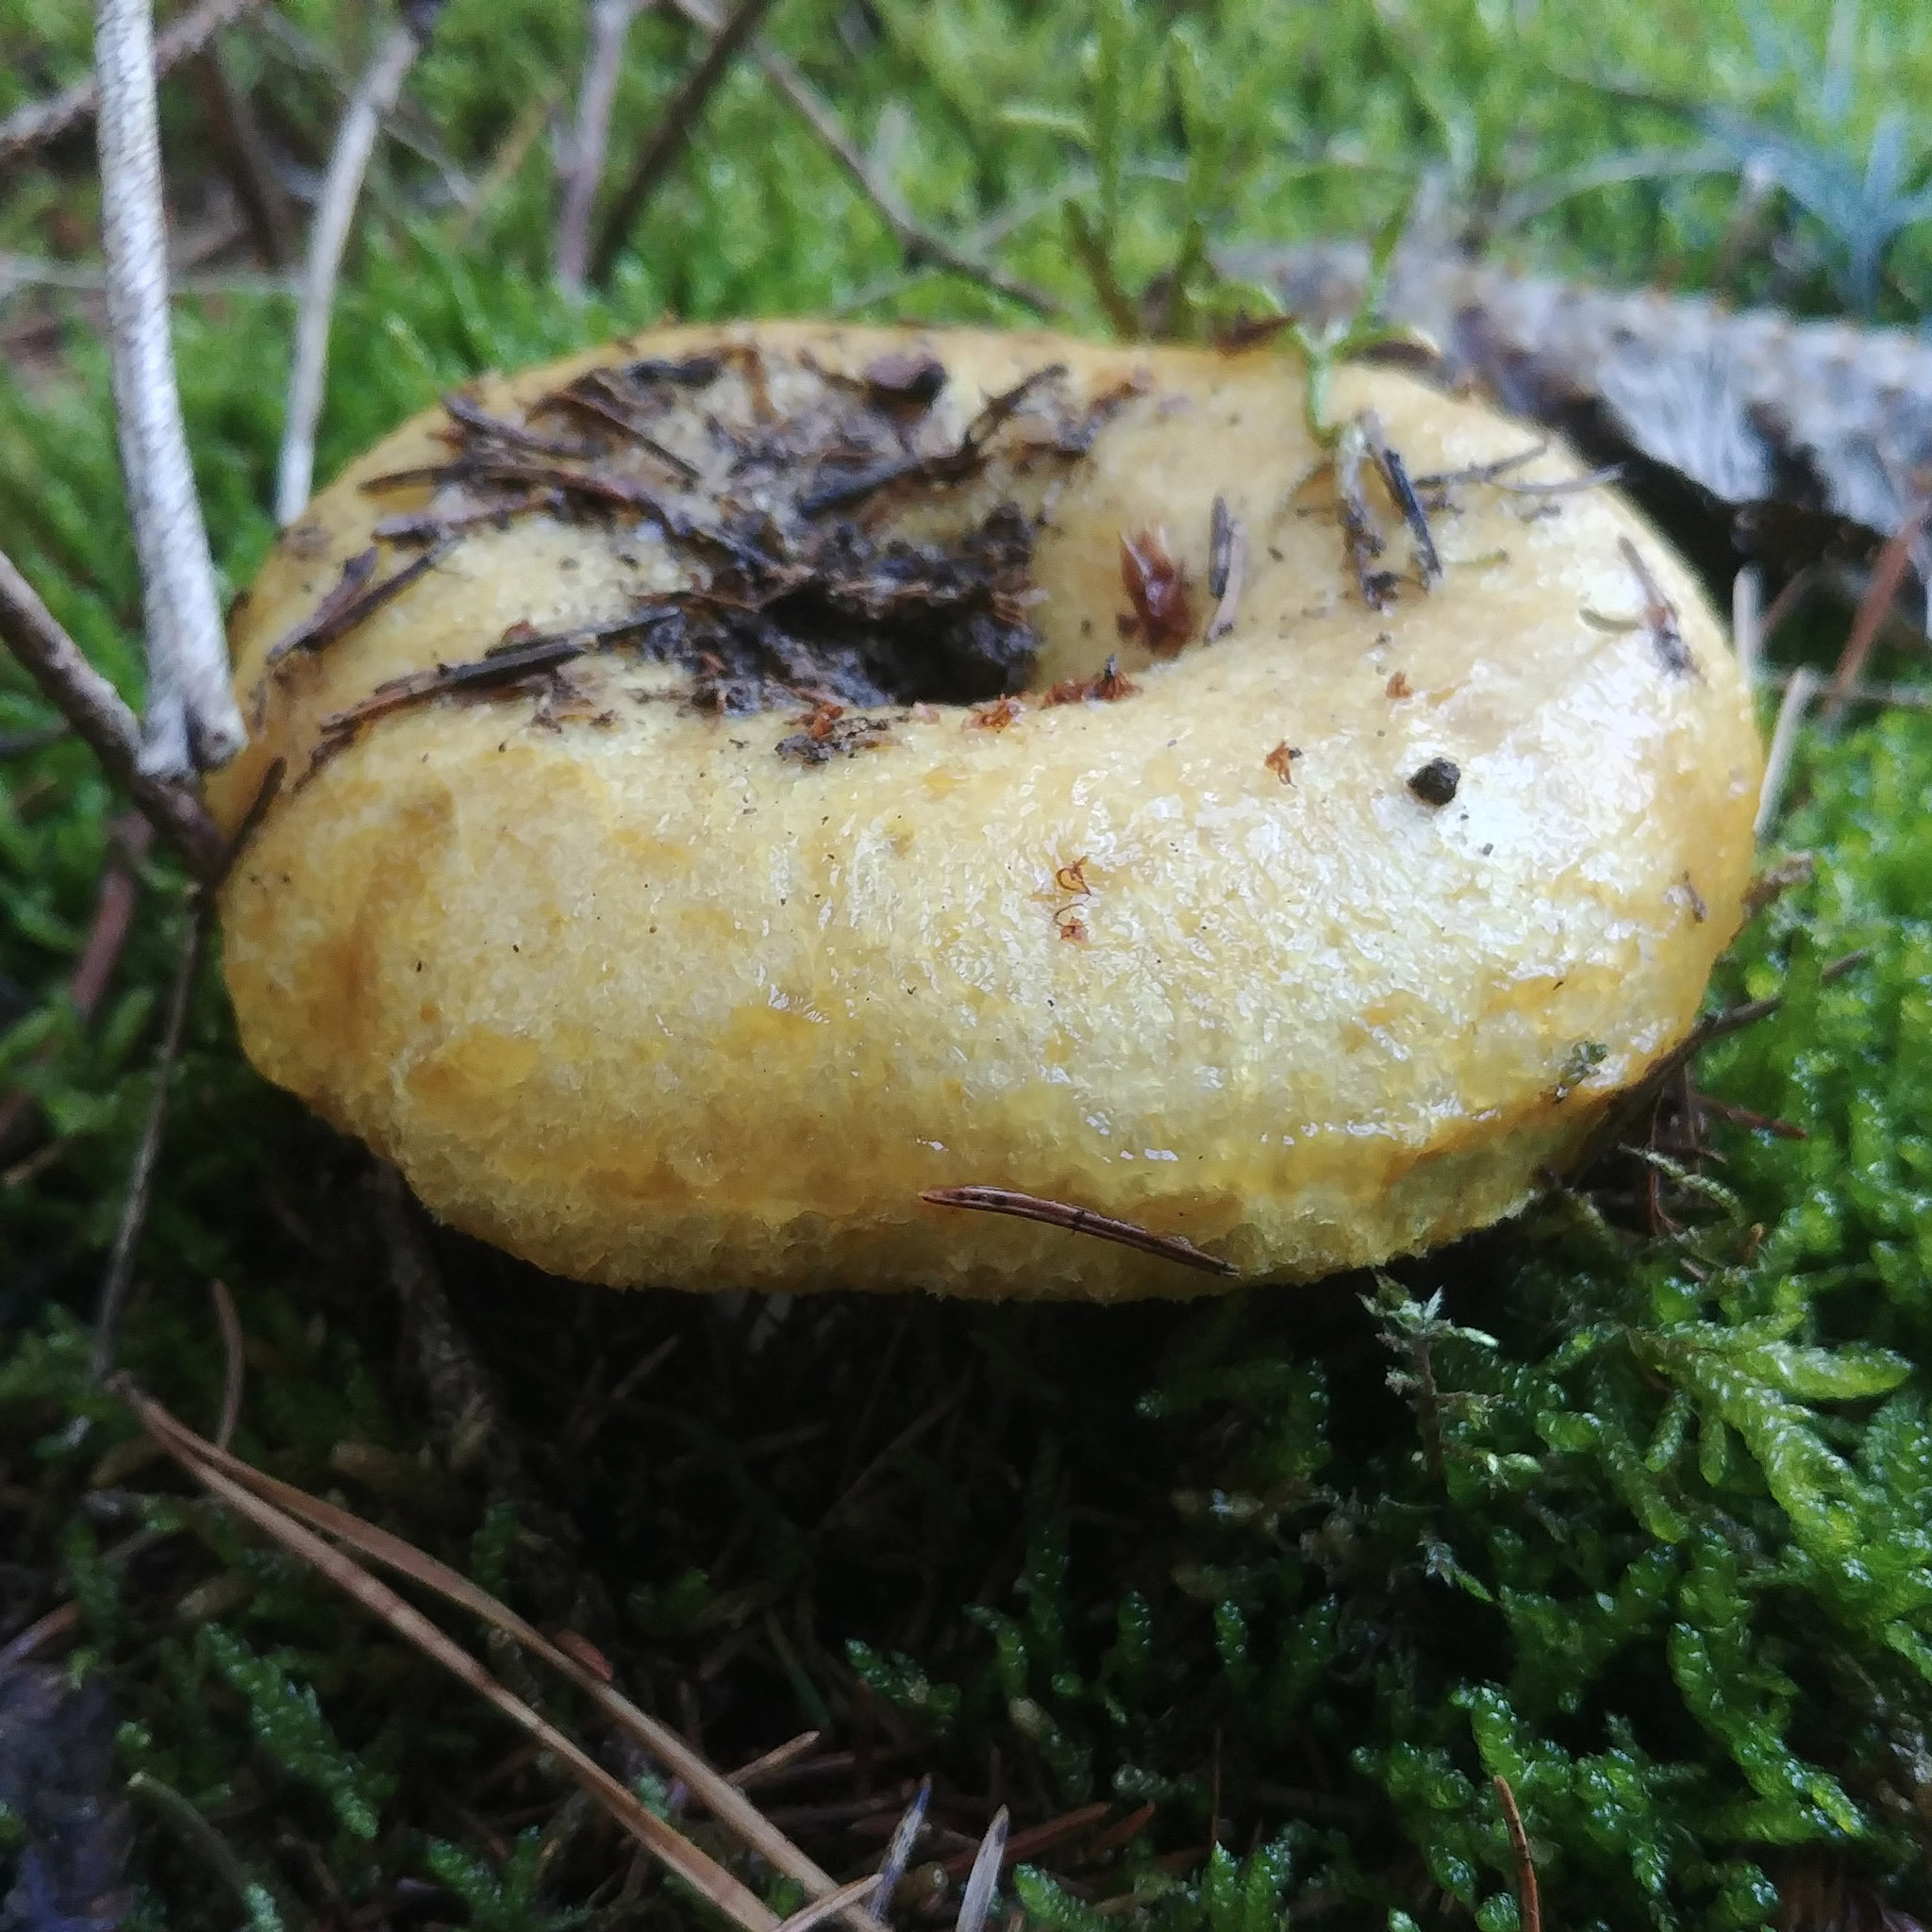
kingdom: Fungi
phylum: Basidiomycota
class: Agaricomycetes
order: Russulales
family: Russulaceae
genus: Lactarius
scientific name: Lactarius scrobiculatus
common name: Spotted milkcap
